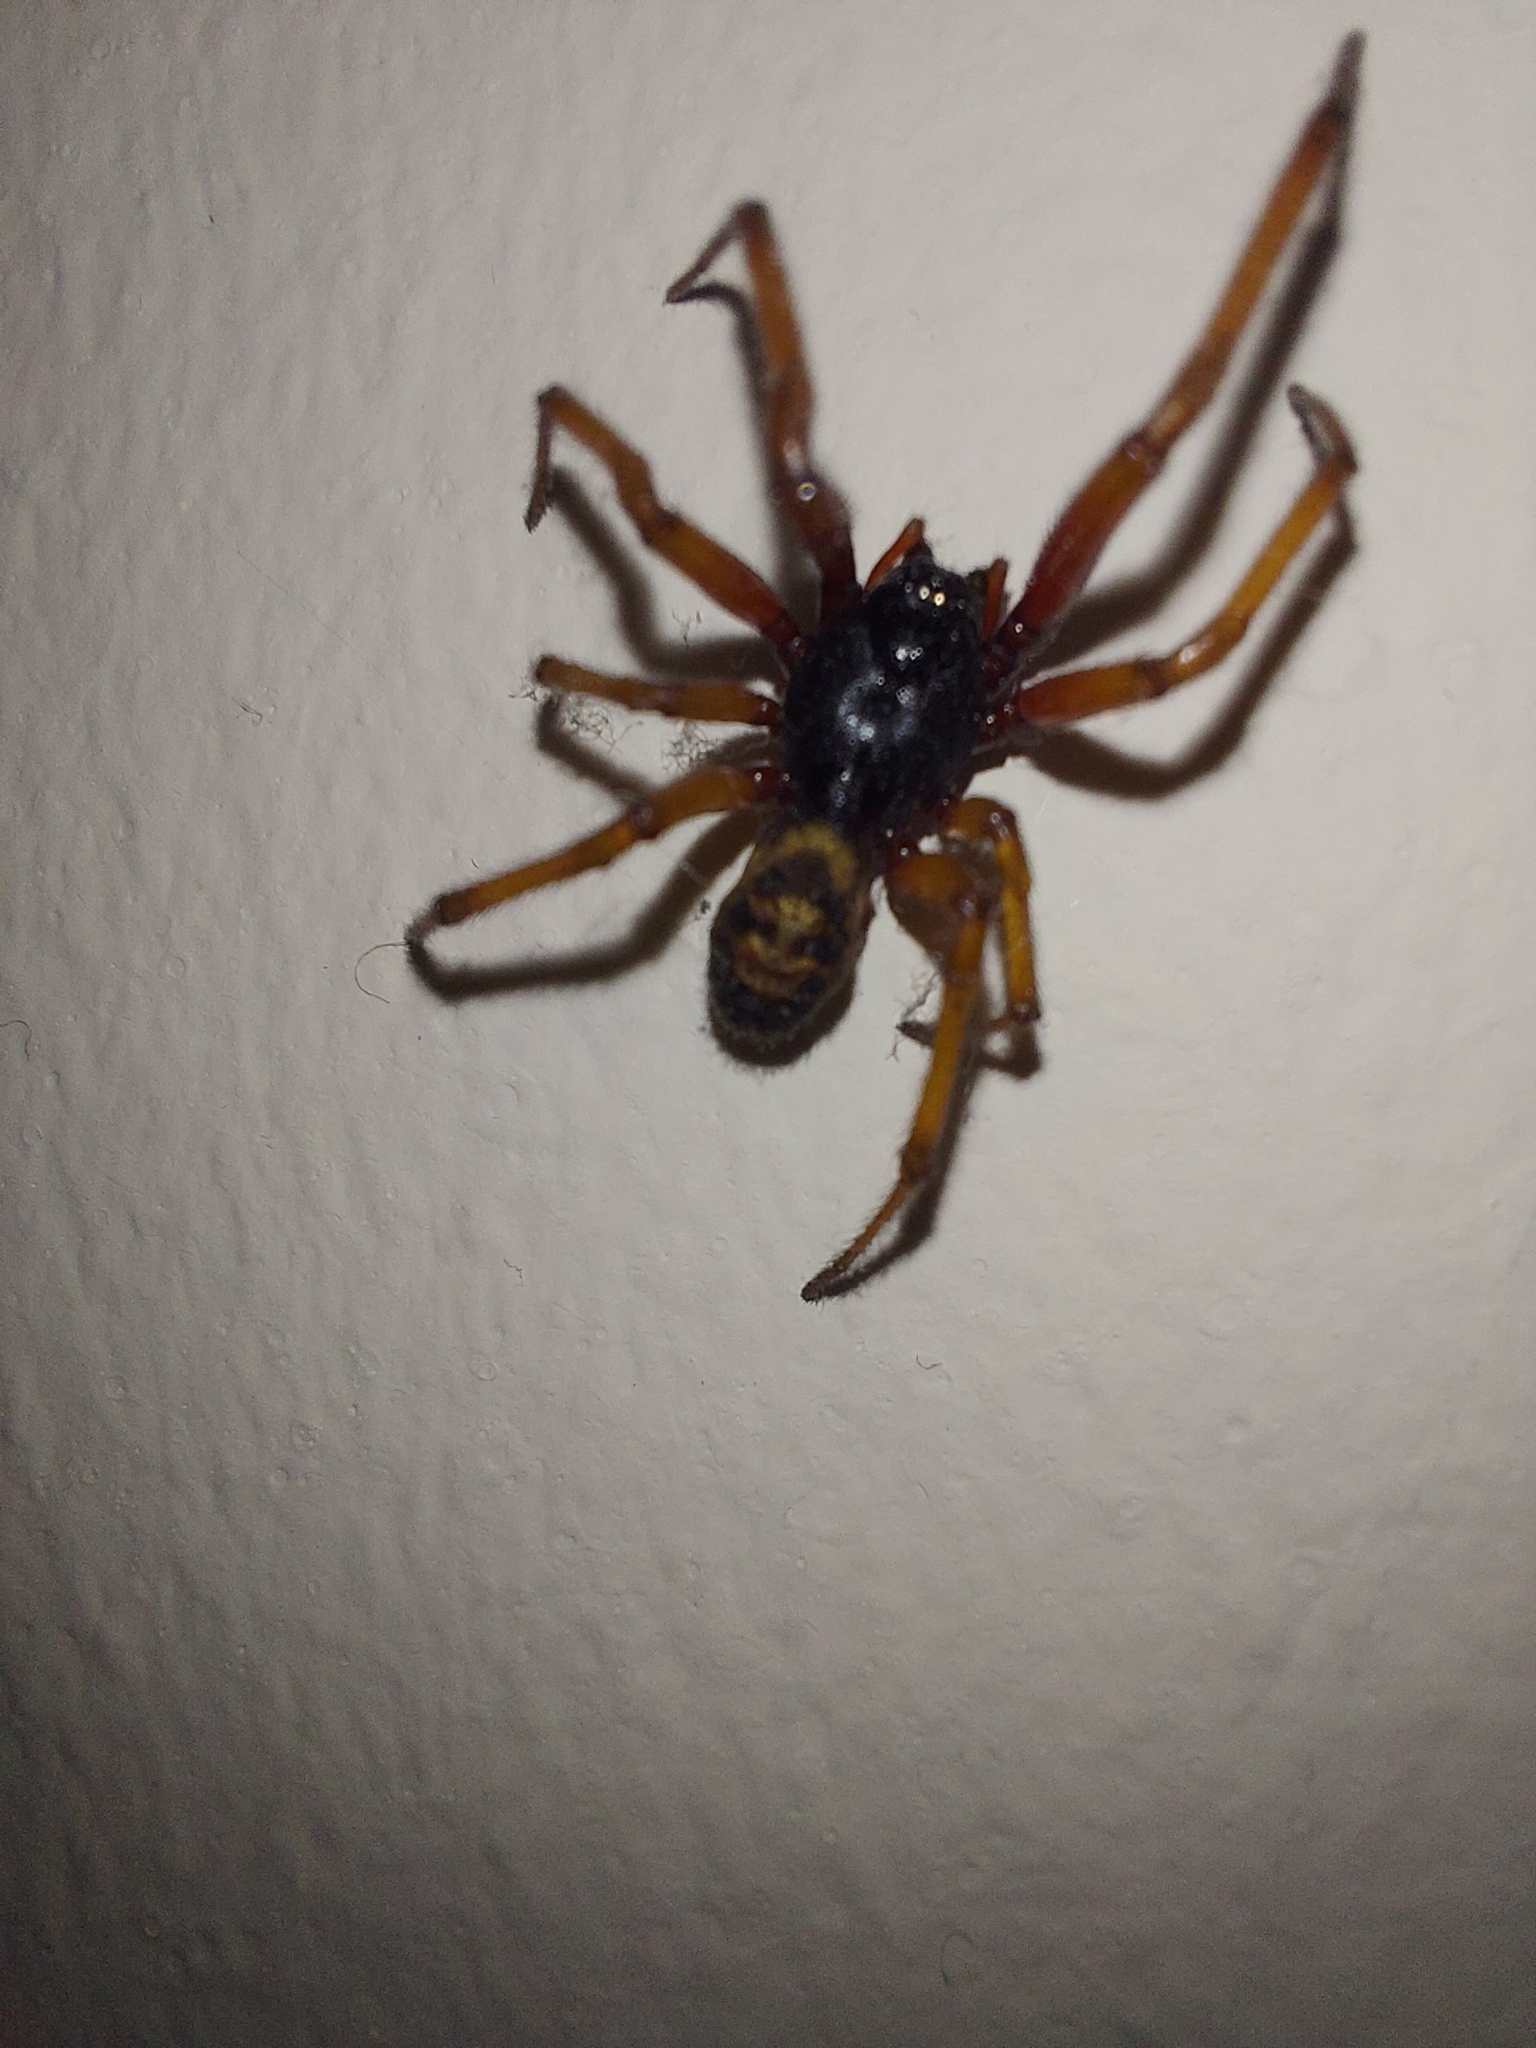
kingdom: Animalia
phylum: Arthropoda
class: Arachnida
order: Araneae
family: Theridiidae
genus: Steatoda
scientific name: Steatoda nobilis
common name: Cobweb weaver
